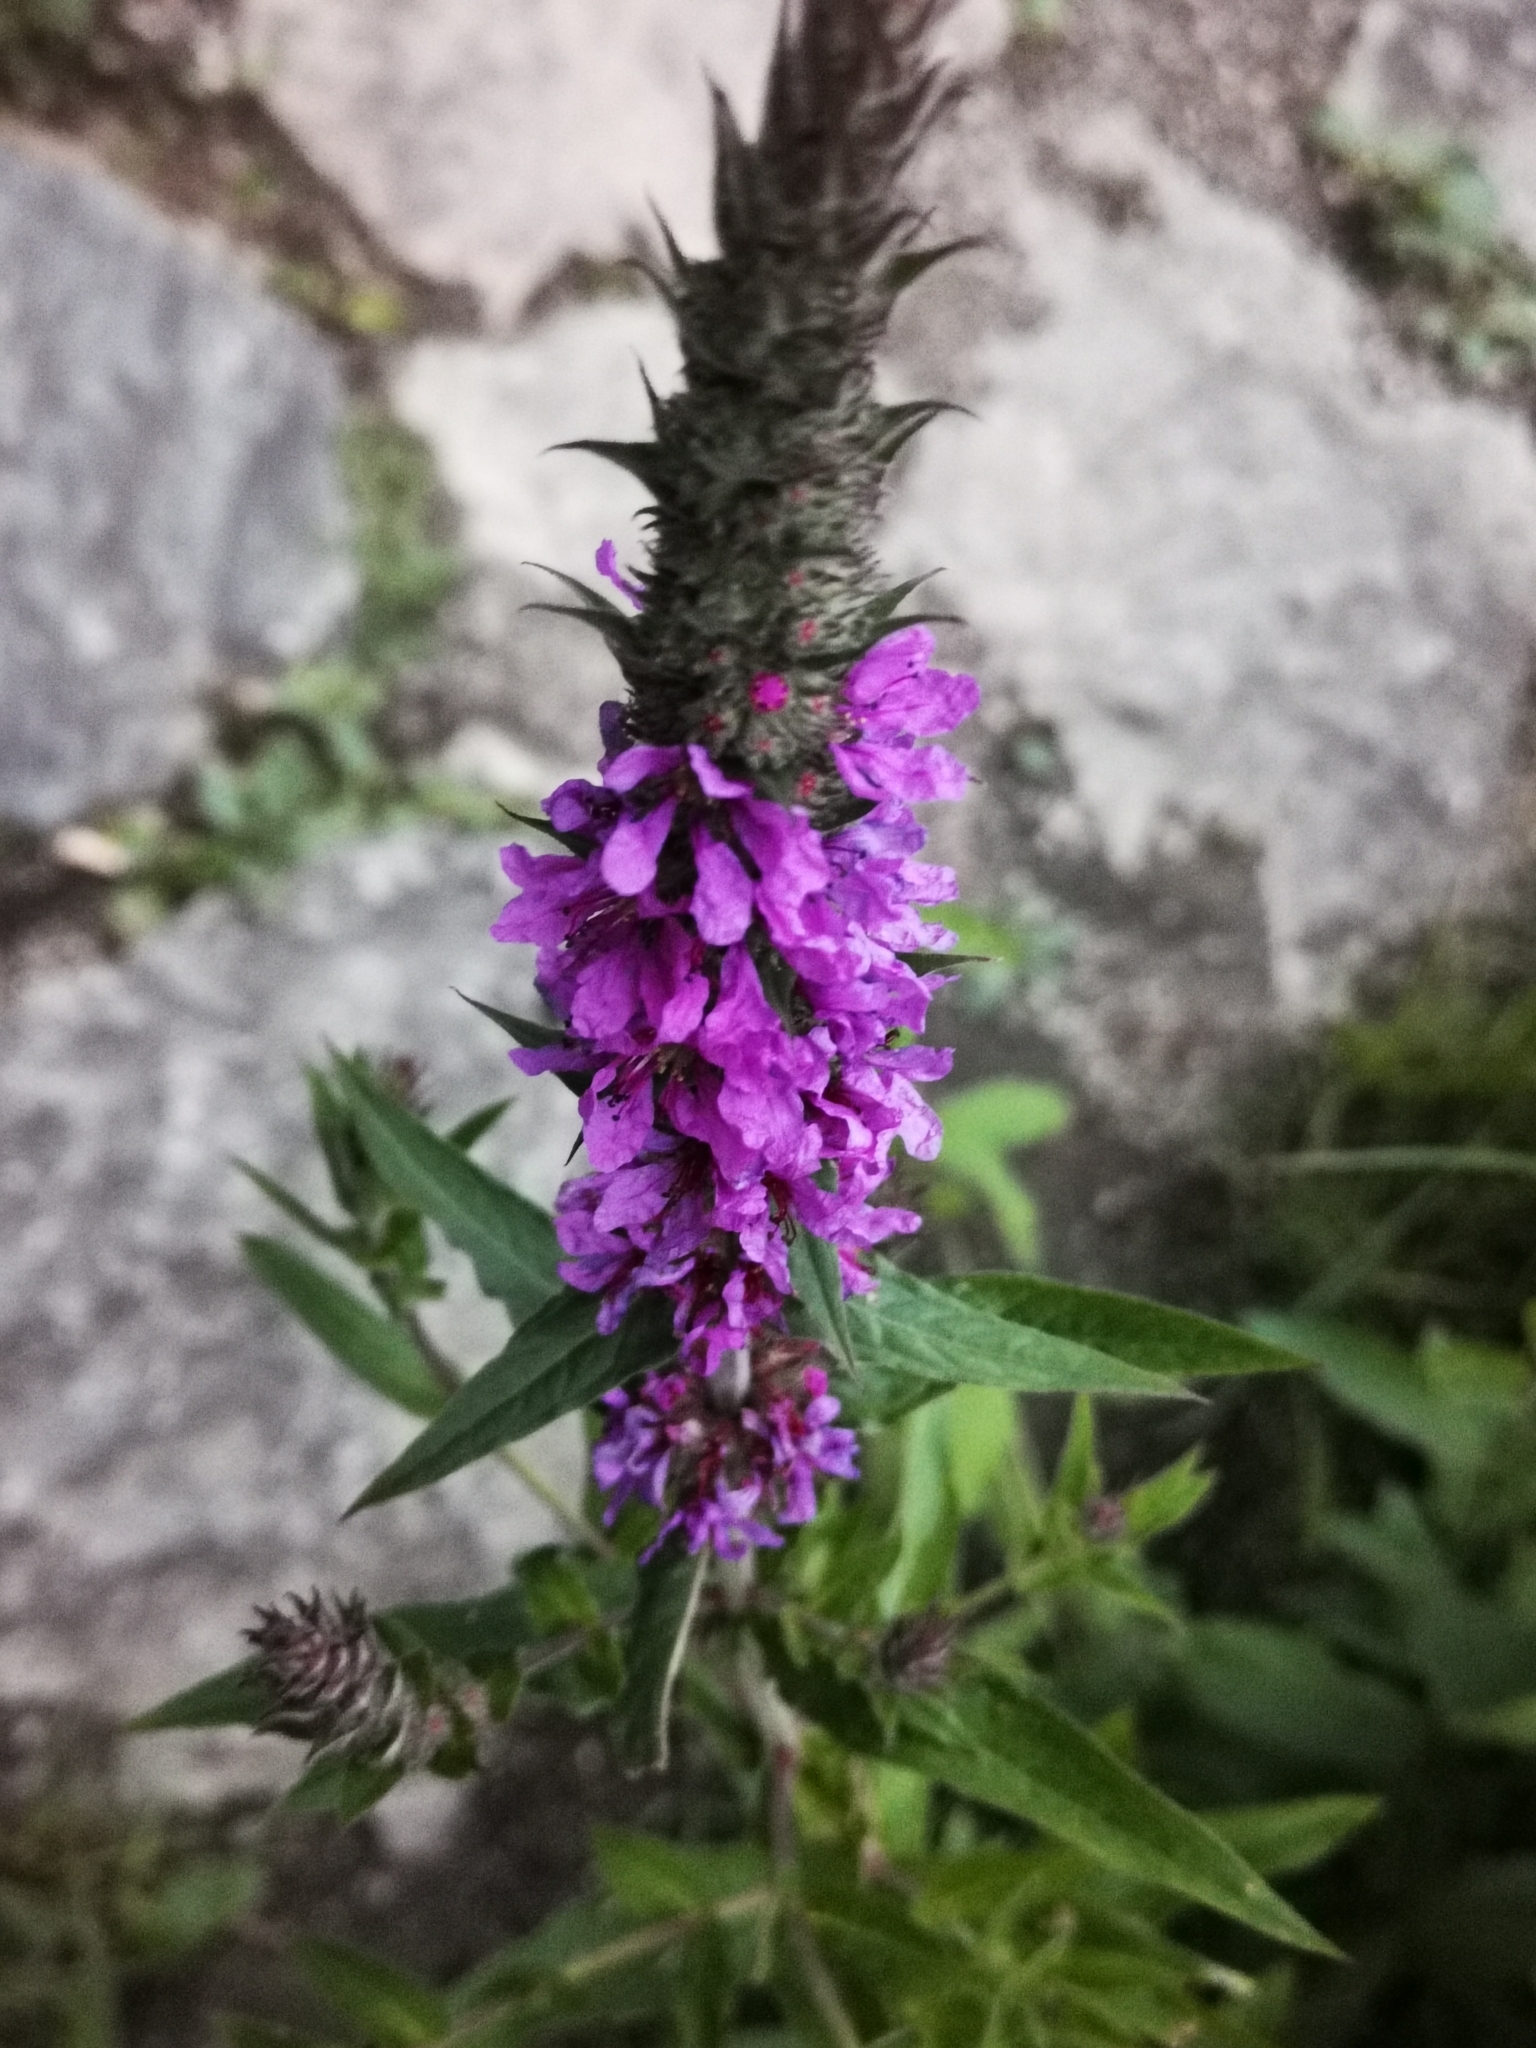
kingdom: Plantae
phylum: Tracheophyta
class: Magnoliopsida
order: Myrtales
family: Lythraceae
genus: Lythrum
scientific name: Lythrum salicaria
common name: Purple loosestrife
